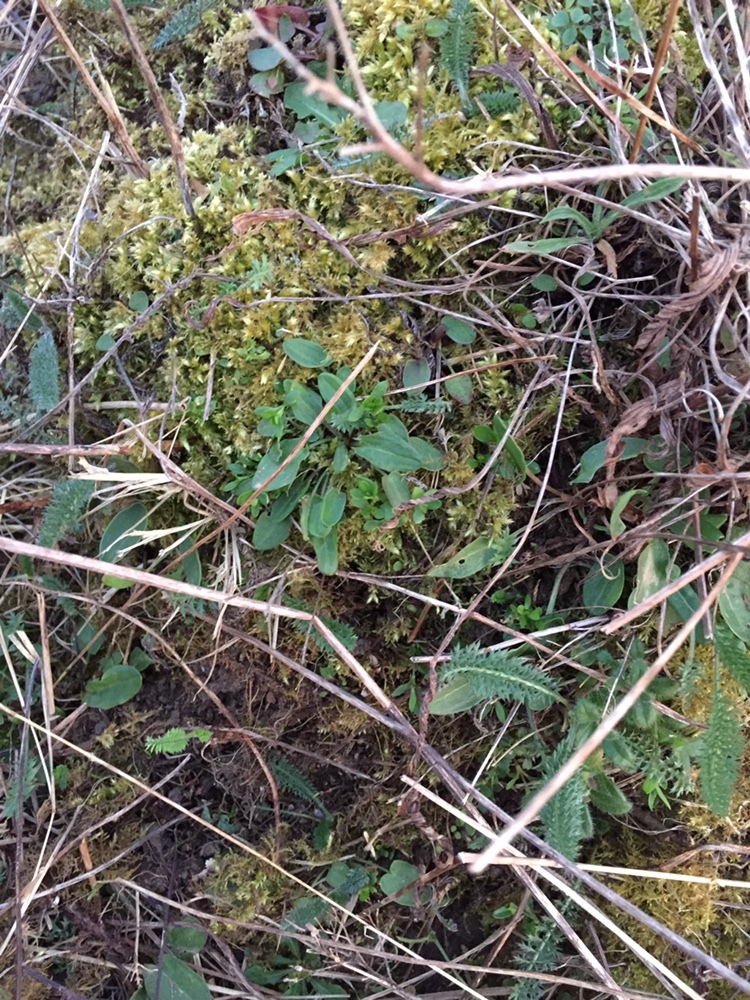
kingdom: Plantae
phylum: Tracheophyta
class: Magnoliopsida
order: Caryophyllales
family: Polygonaceae
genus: Rumex
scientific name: Rumex acetosa
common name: Garden sorrel
